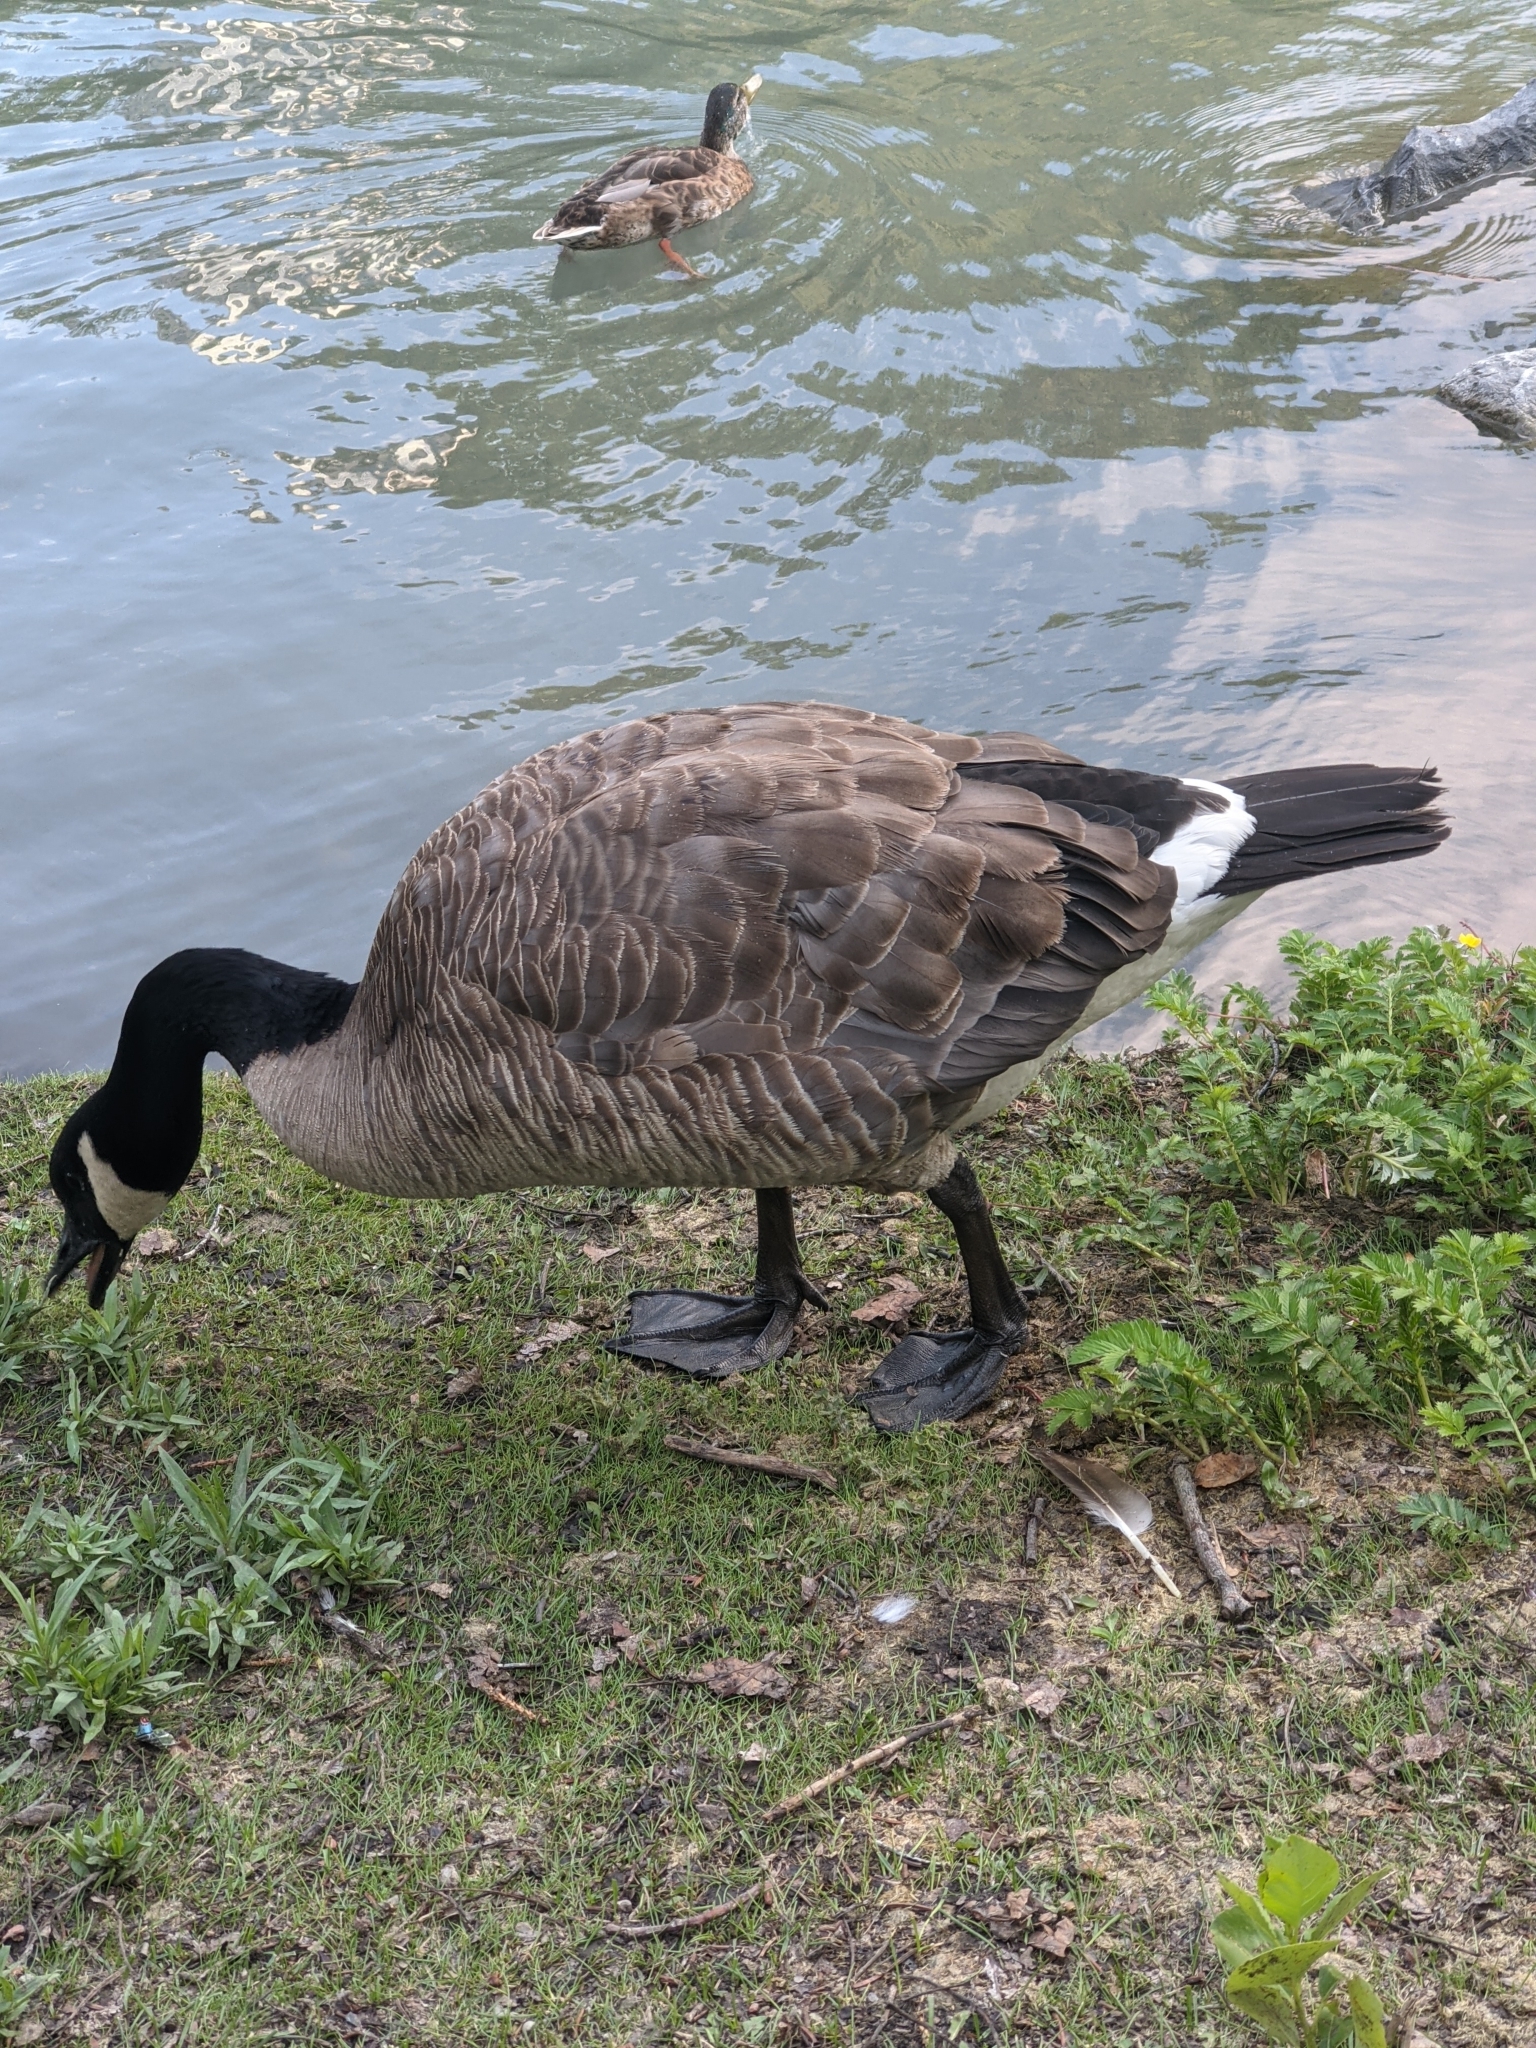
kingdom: Animalia
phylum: Chordata
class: Aves
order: Anseriformes
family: Anatidae
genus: Branta
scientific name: Branta canadensis
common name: Canada goose
